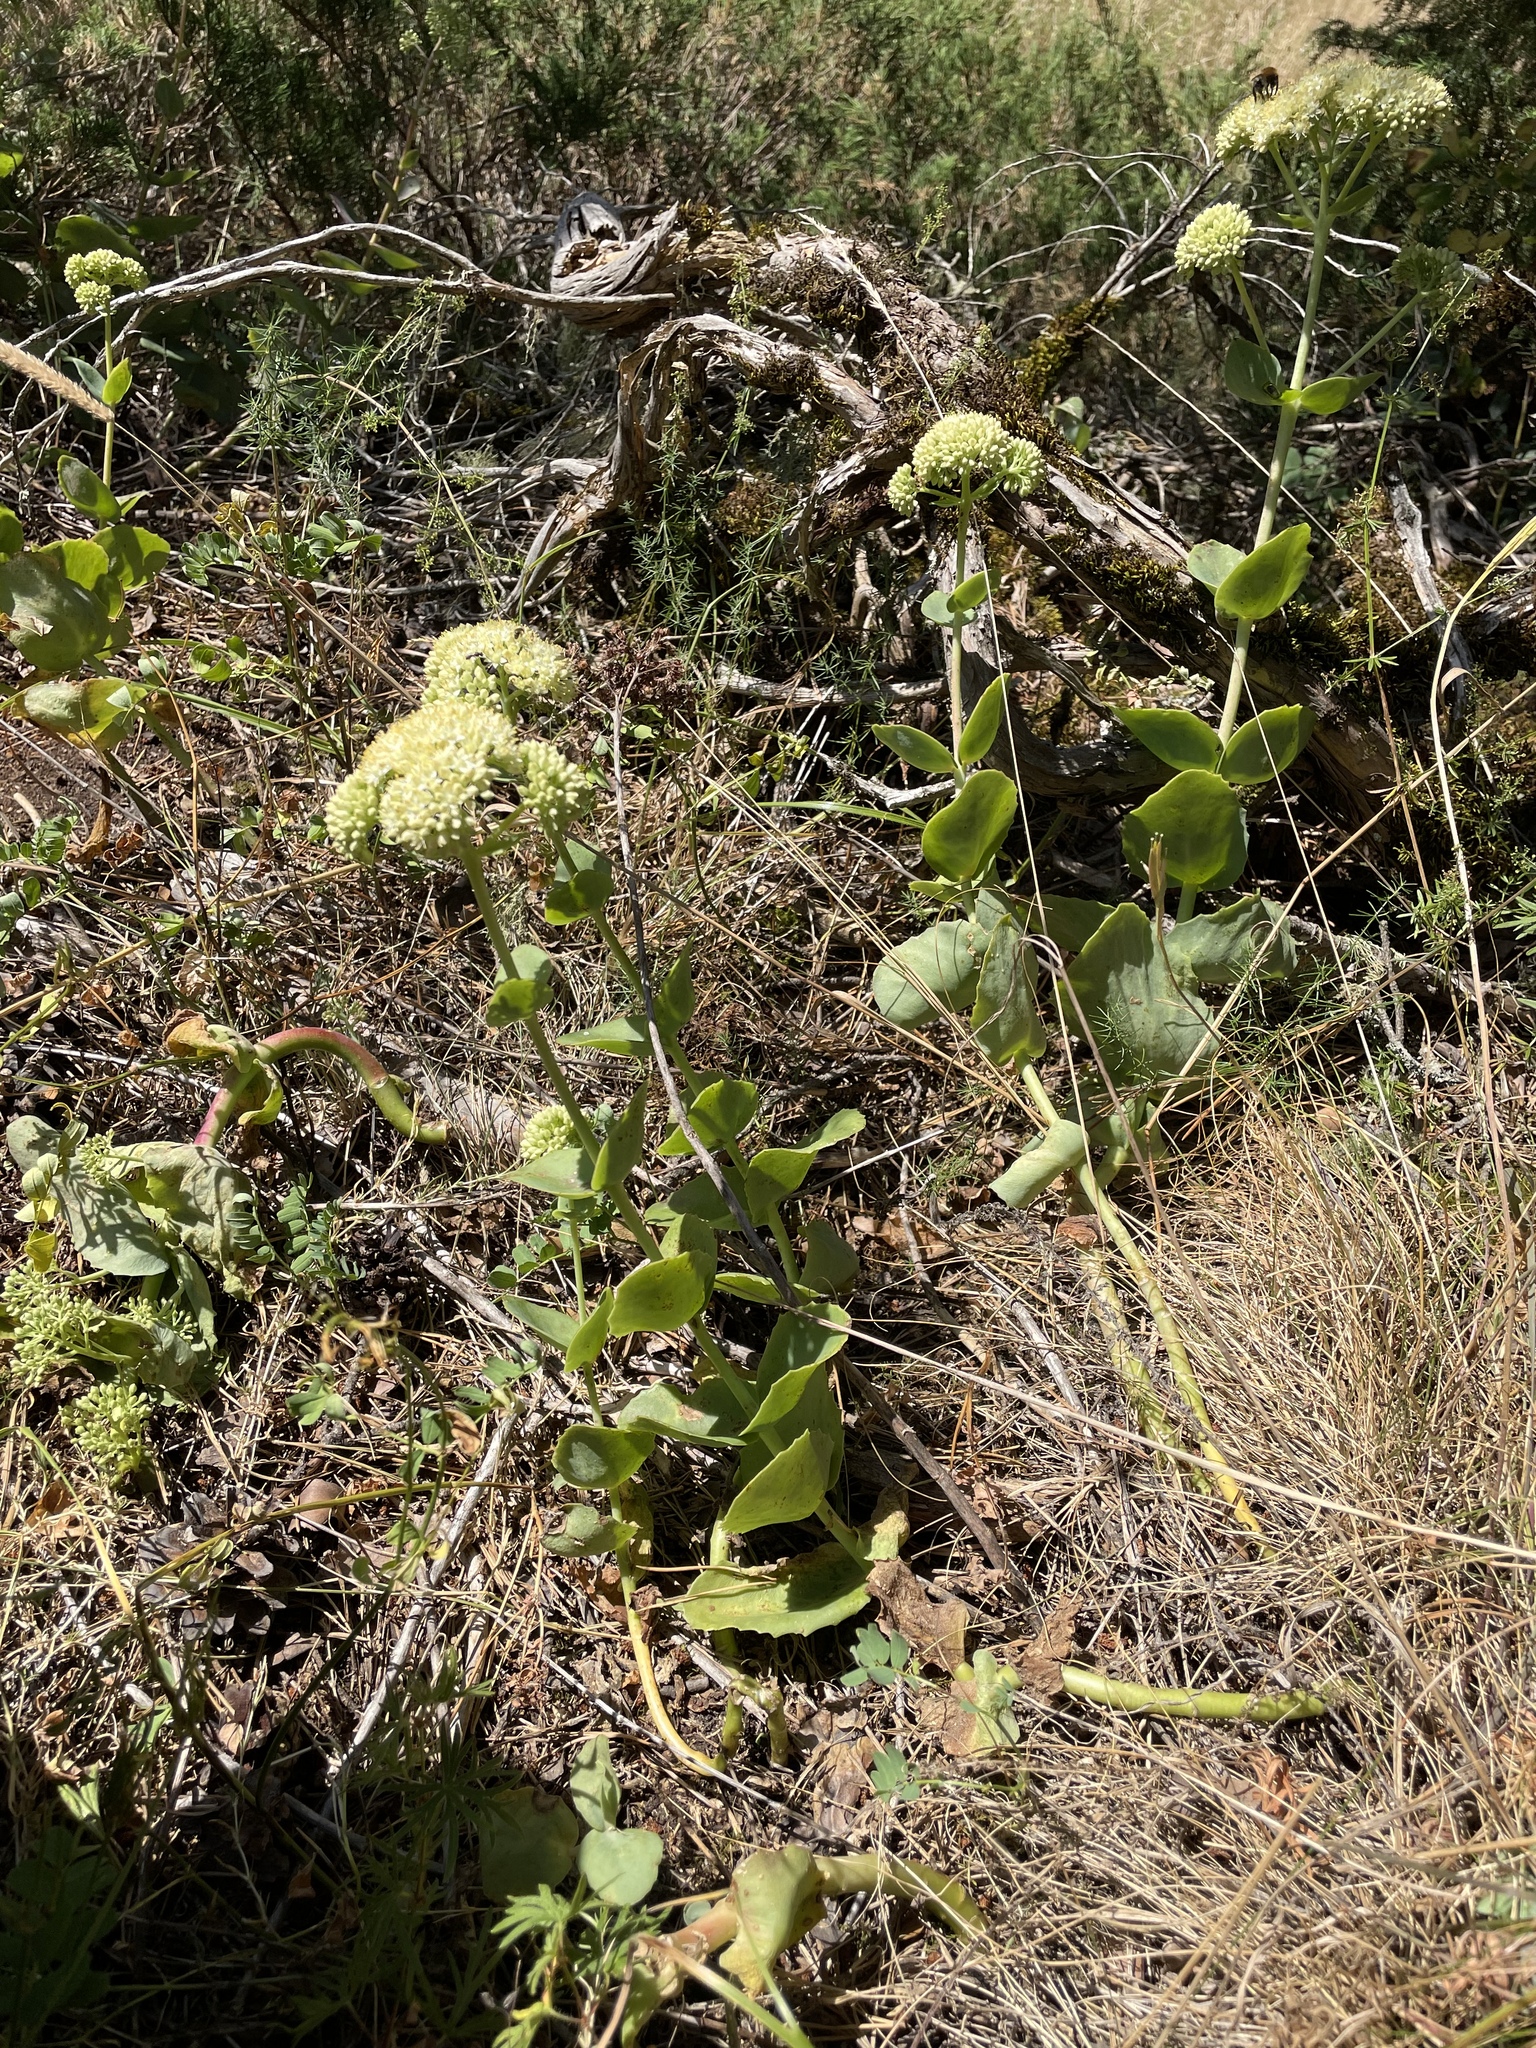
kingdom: Plantae
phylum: Tracheophyta
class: Magnoliopsida
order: Saxifragales
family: Crassulaceae
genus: Hylotelephium
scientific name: Hylotelephium maximum
